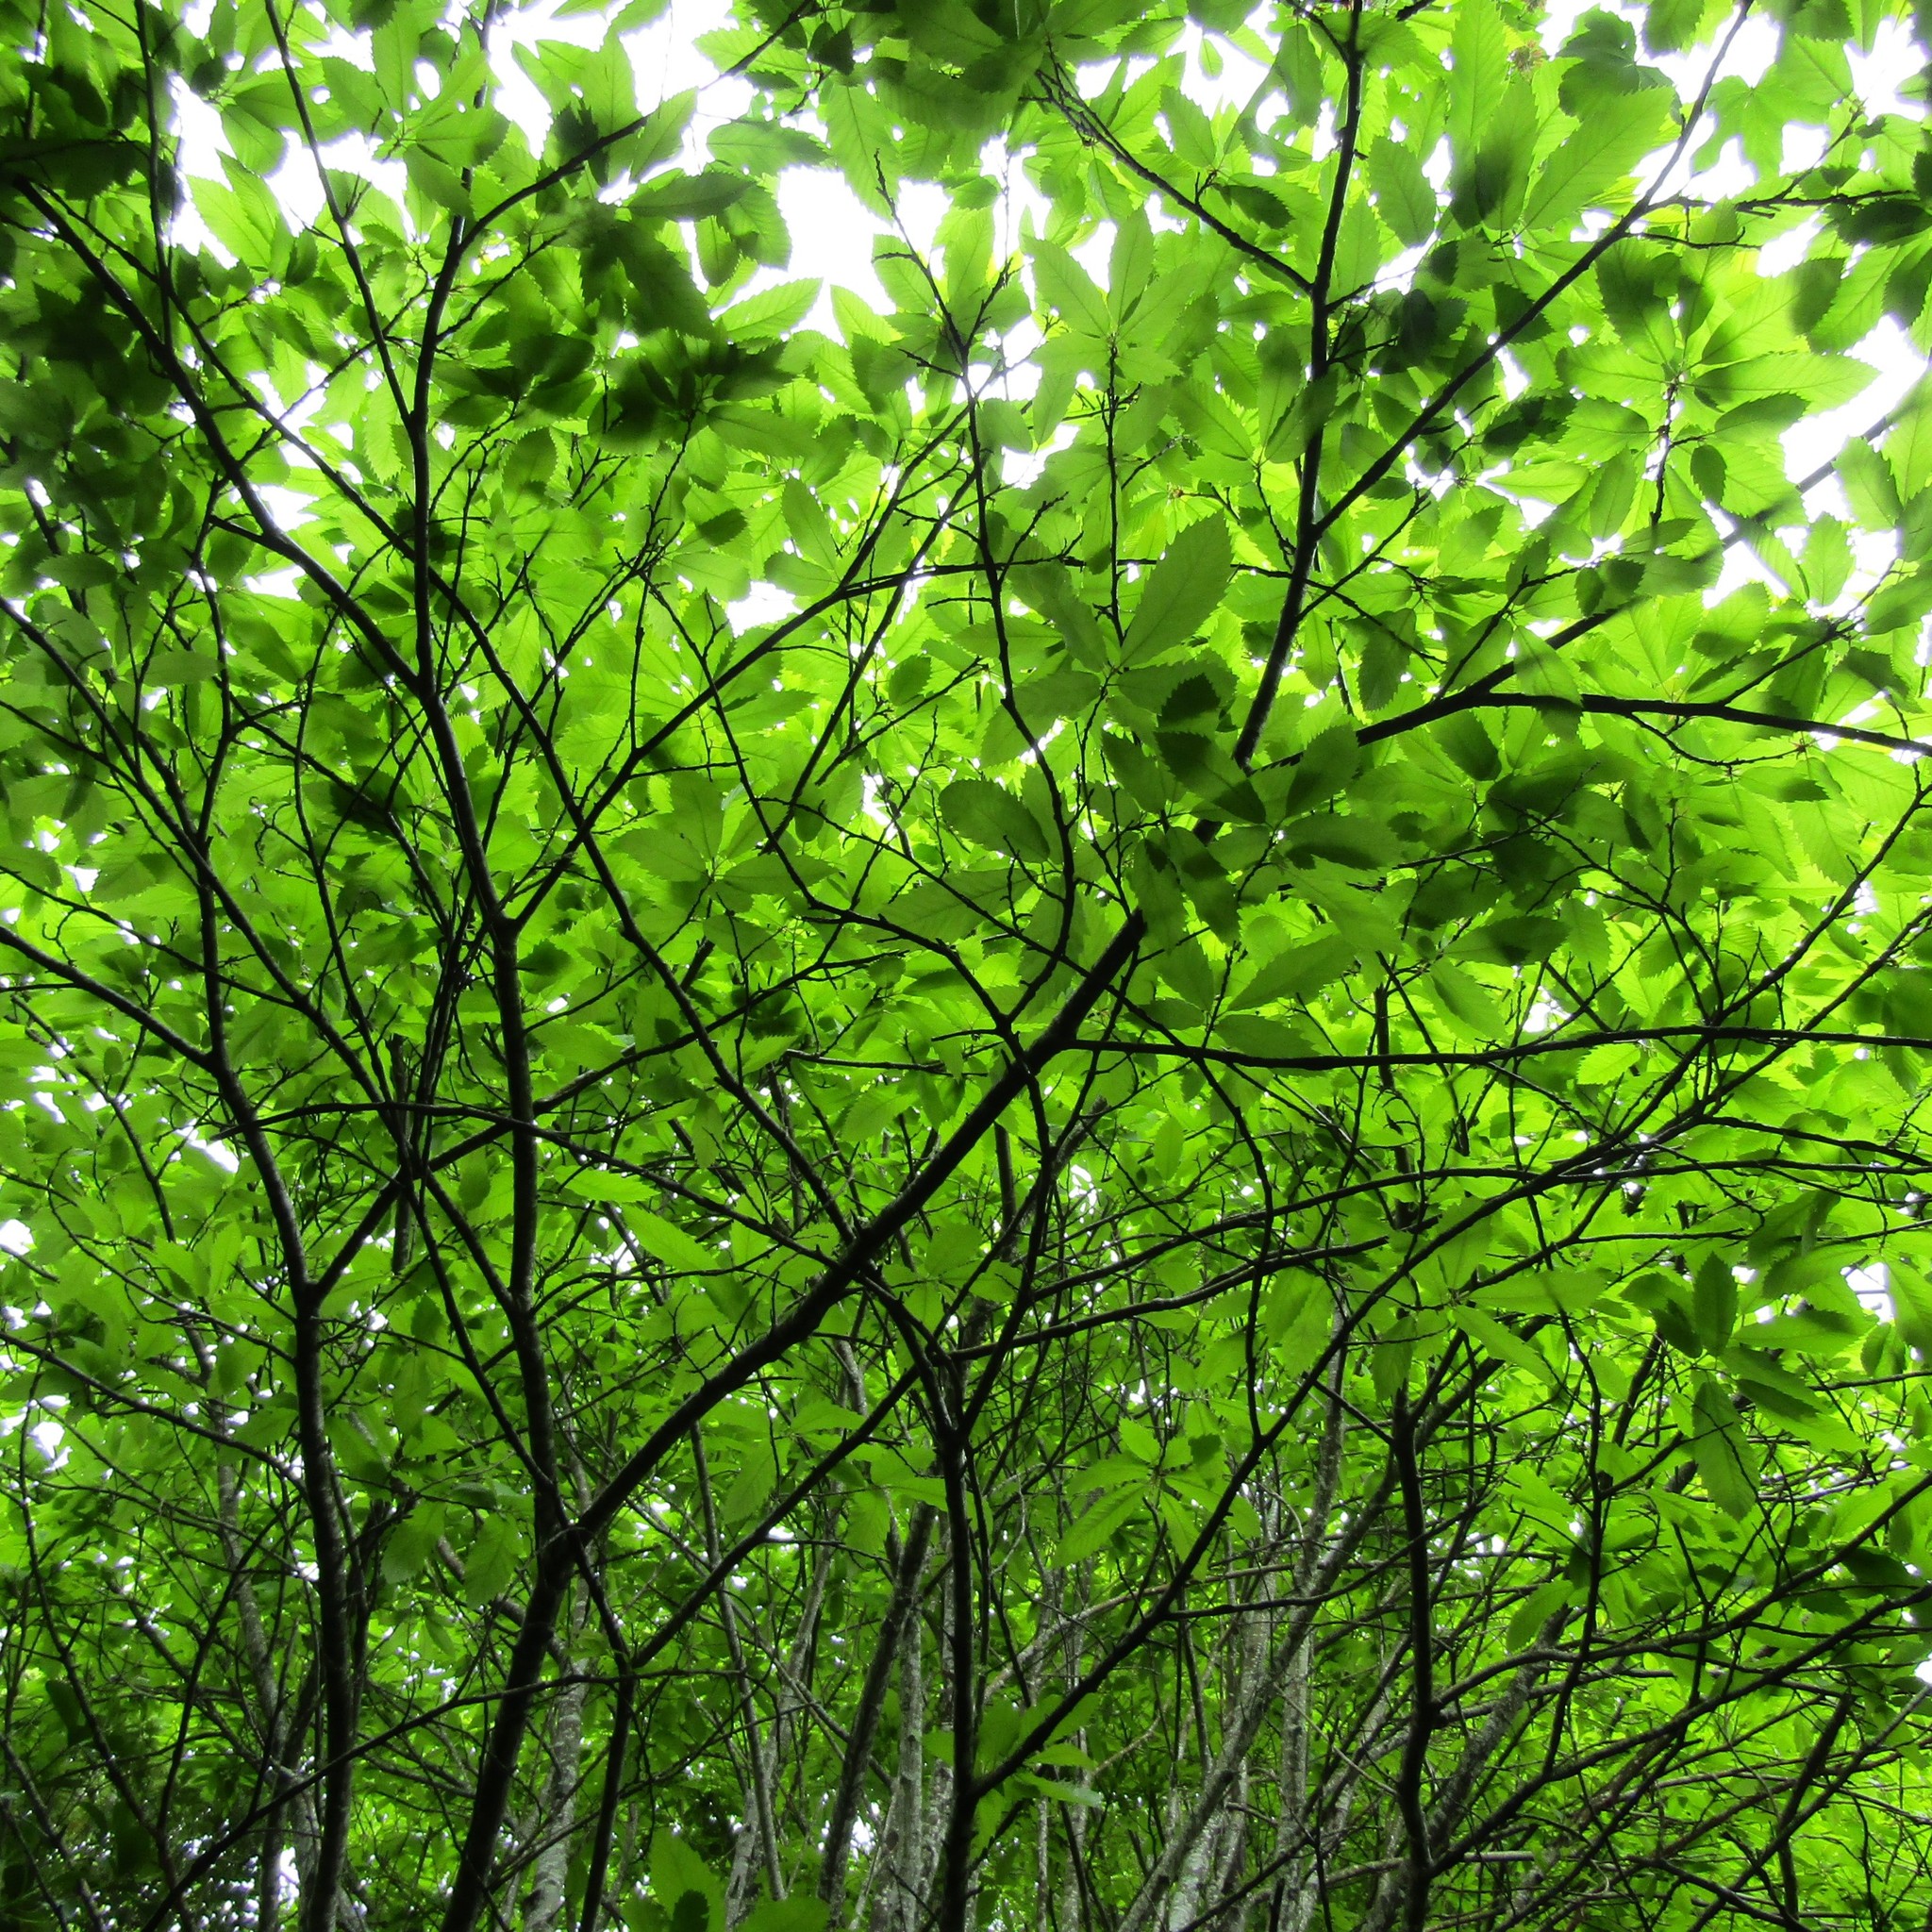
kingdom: Plantae
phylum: Tracheophyta
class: Magnoliopsida
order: Fagales
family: Fagaceae
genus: Castanea
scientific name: Castanea sativa
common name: Sweet chestnut
